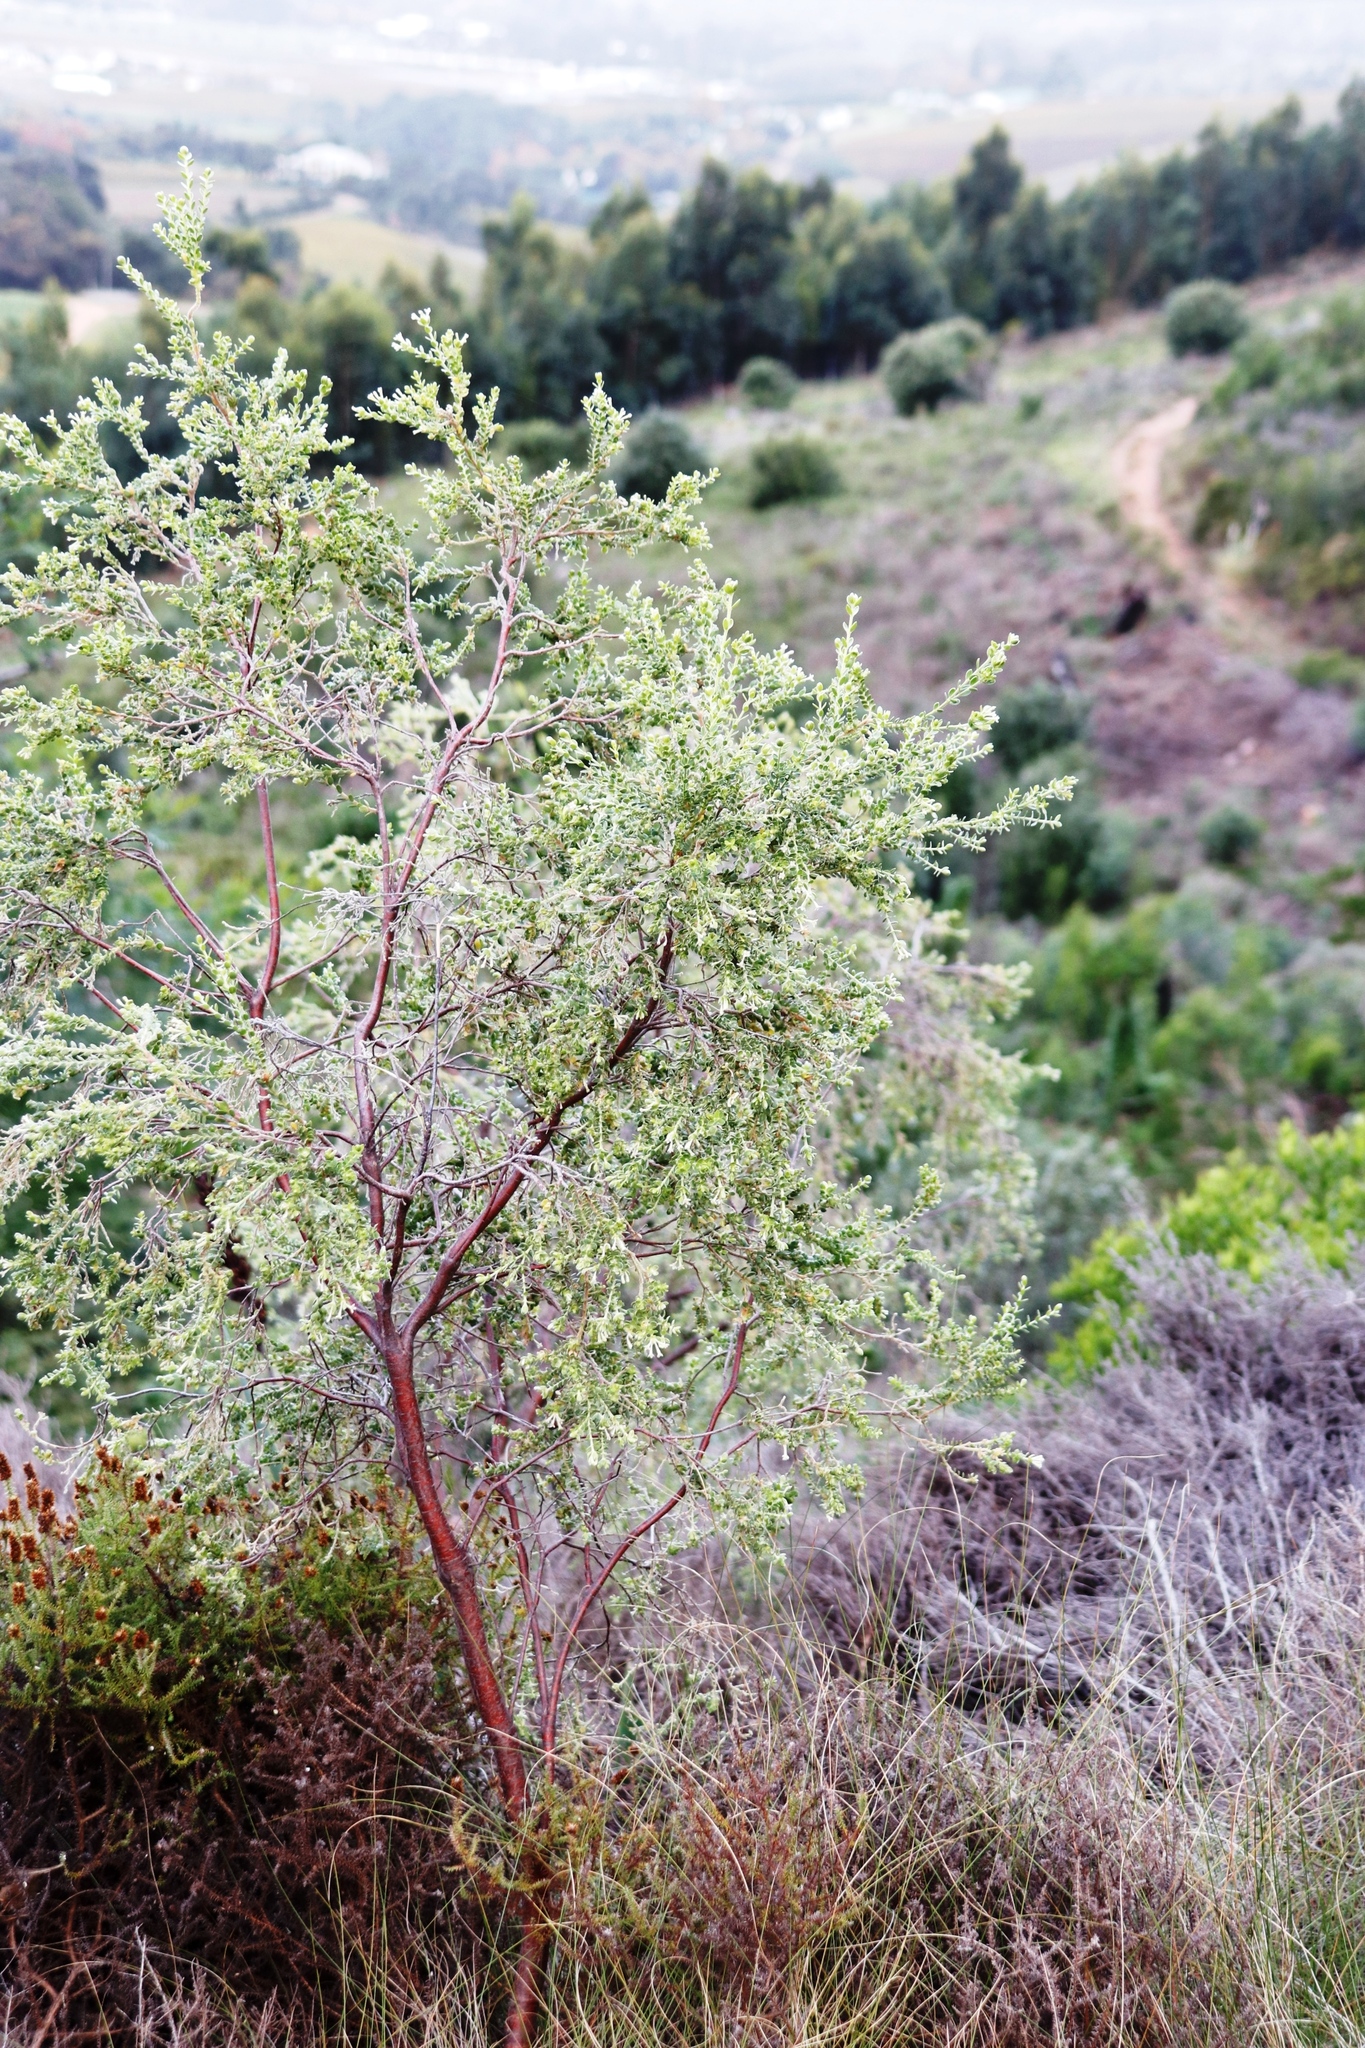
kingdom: Plantae
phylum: Tracheophyta
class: Magnoliopsida
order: Malvales
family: Thymelaeaceae
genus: Gnidia
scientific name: Gnidia sericea
